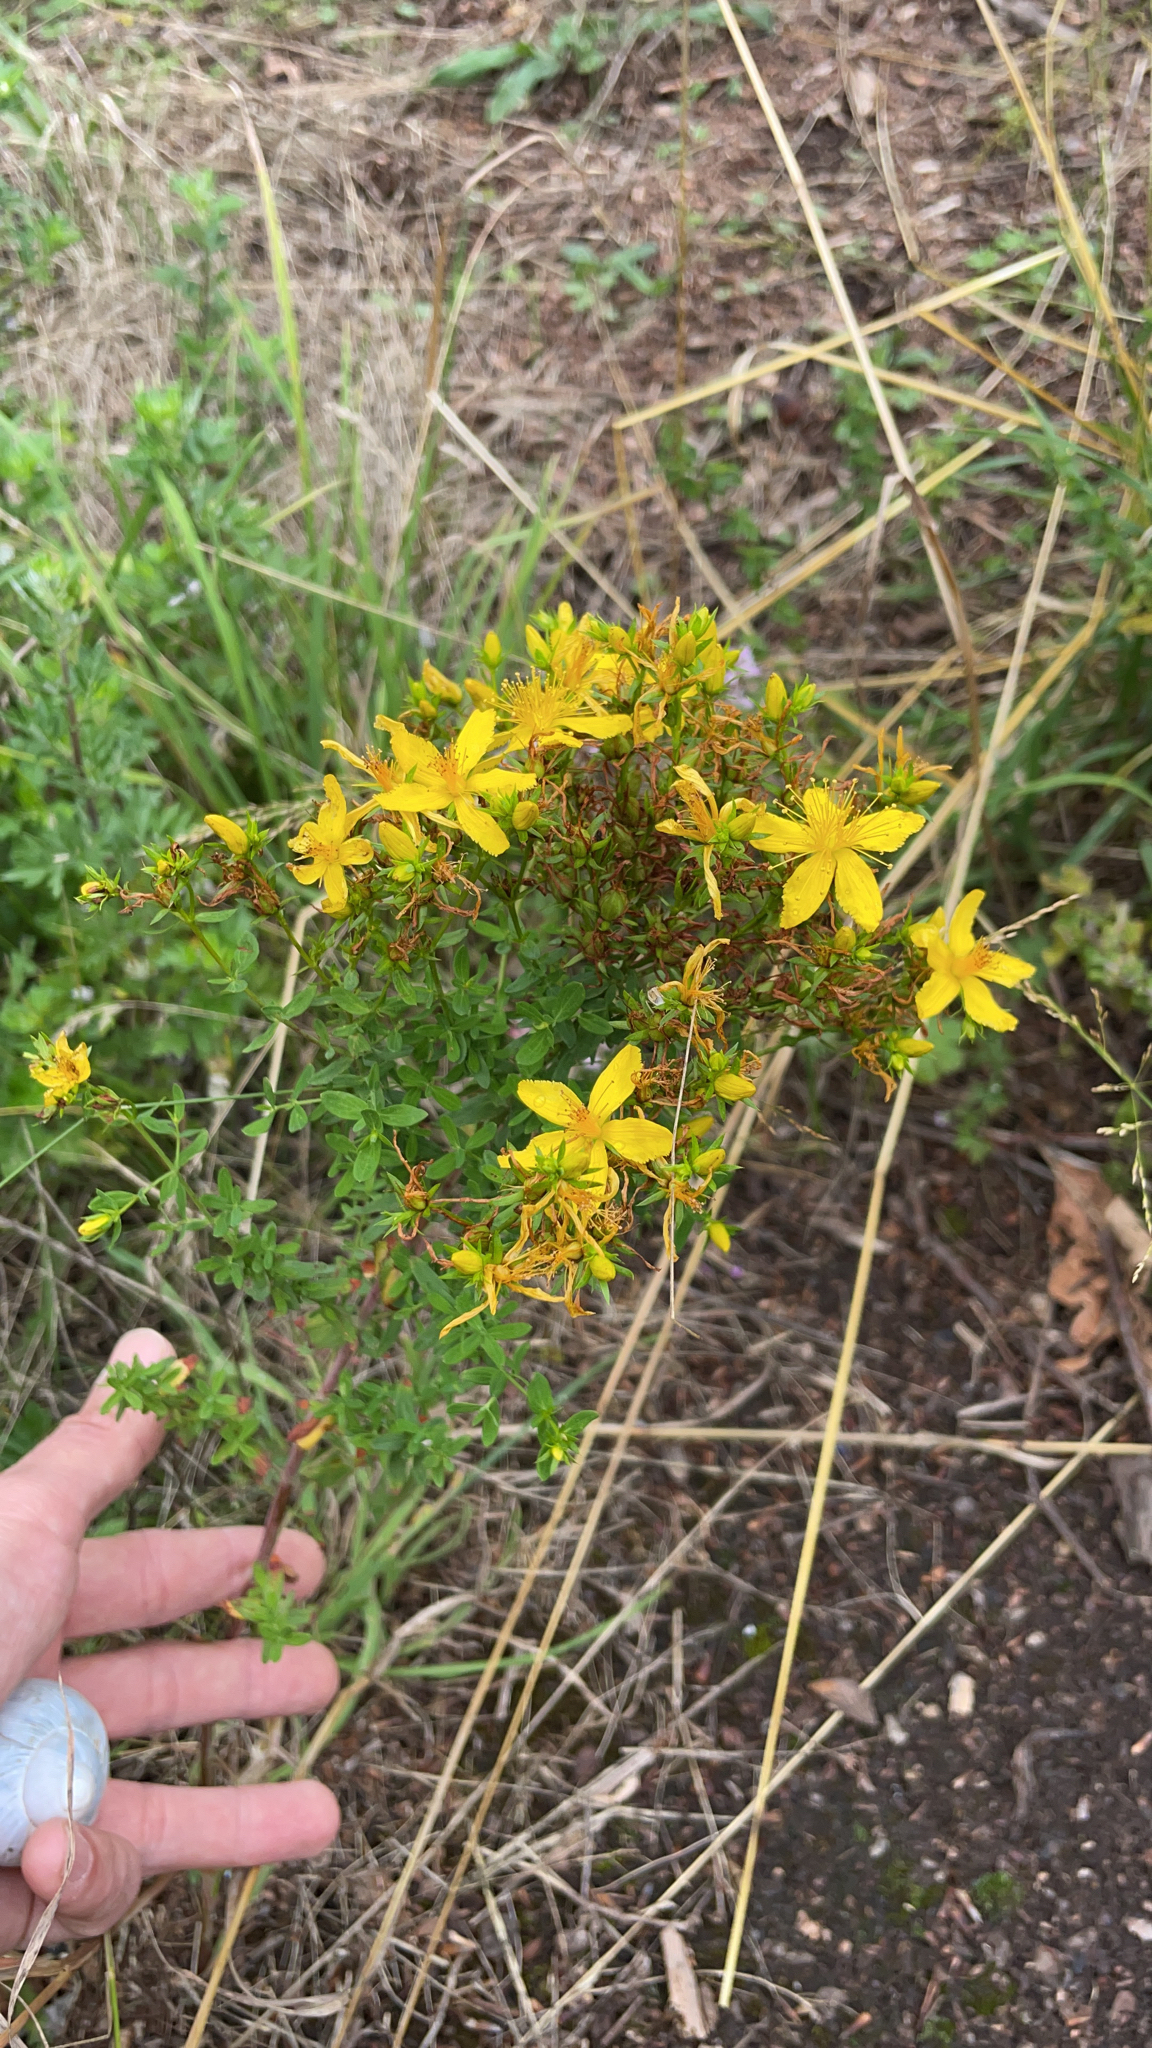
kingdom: Plantae
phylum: Tracheophyta
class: Magnoliopsida
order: Malpighiales
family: Hypericaceae
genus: Hypericum
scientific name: Hypericum perforatum
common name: Common st. johnswort
